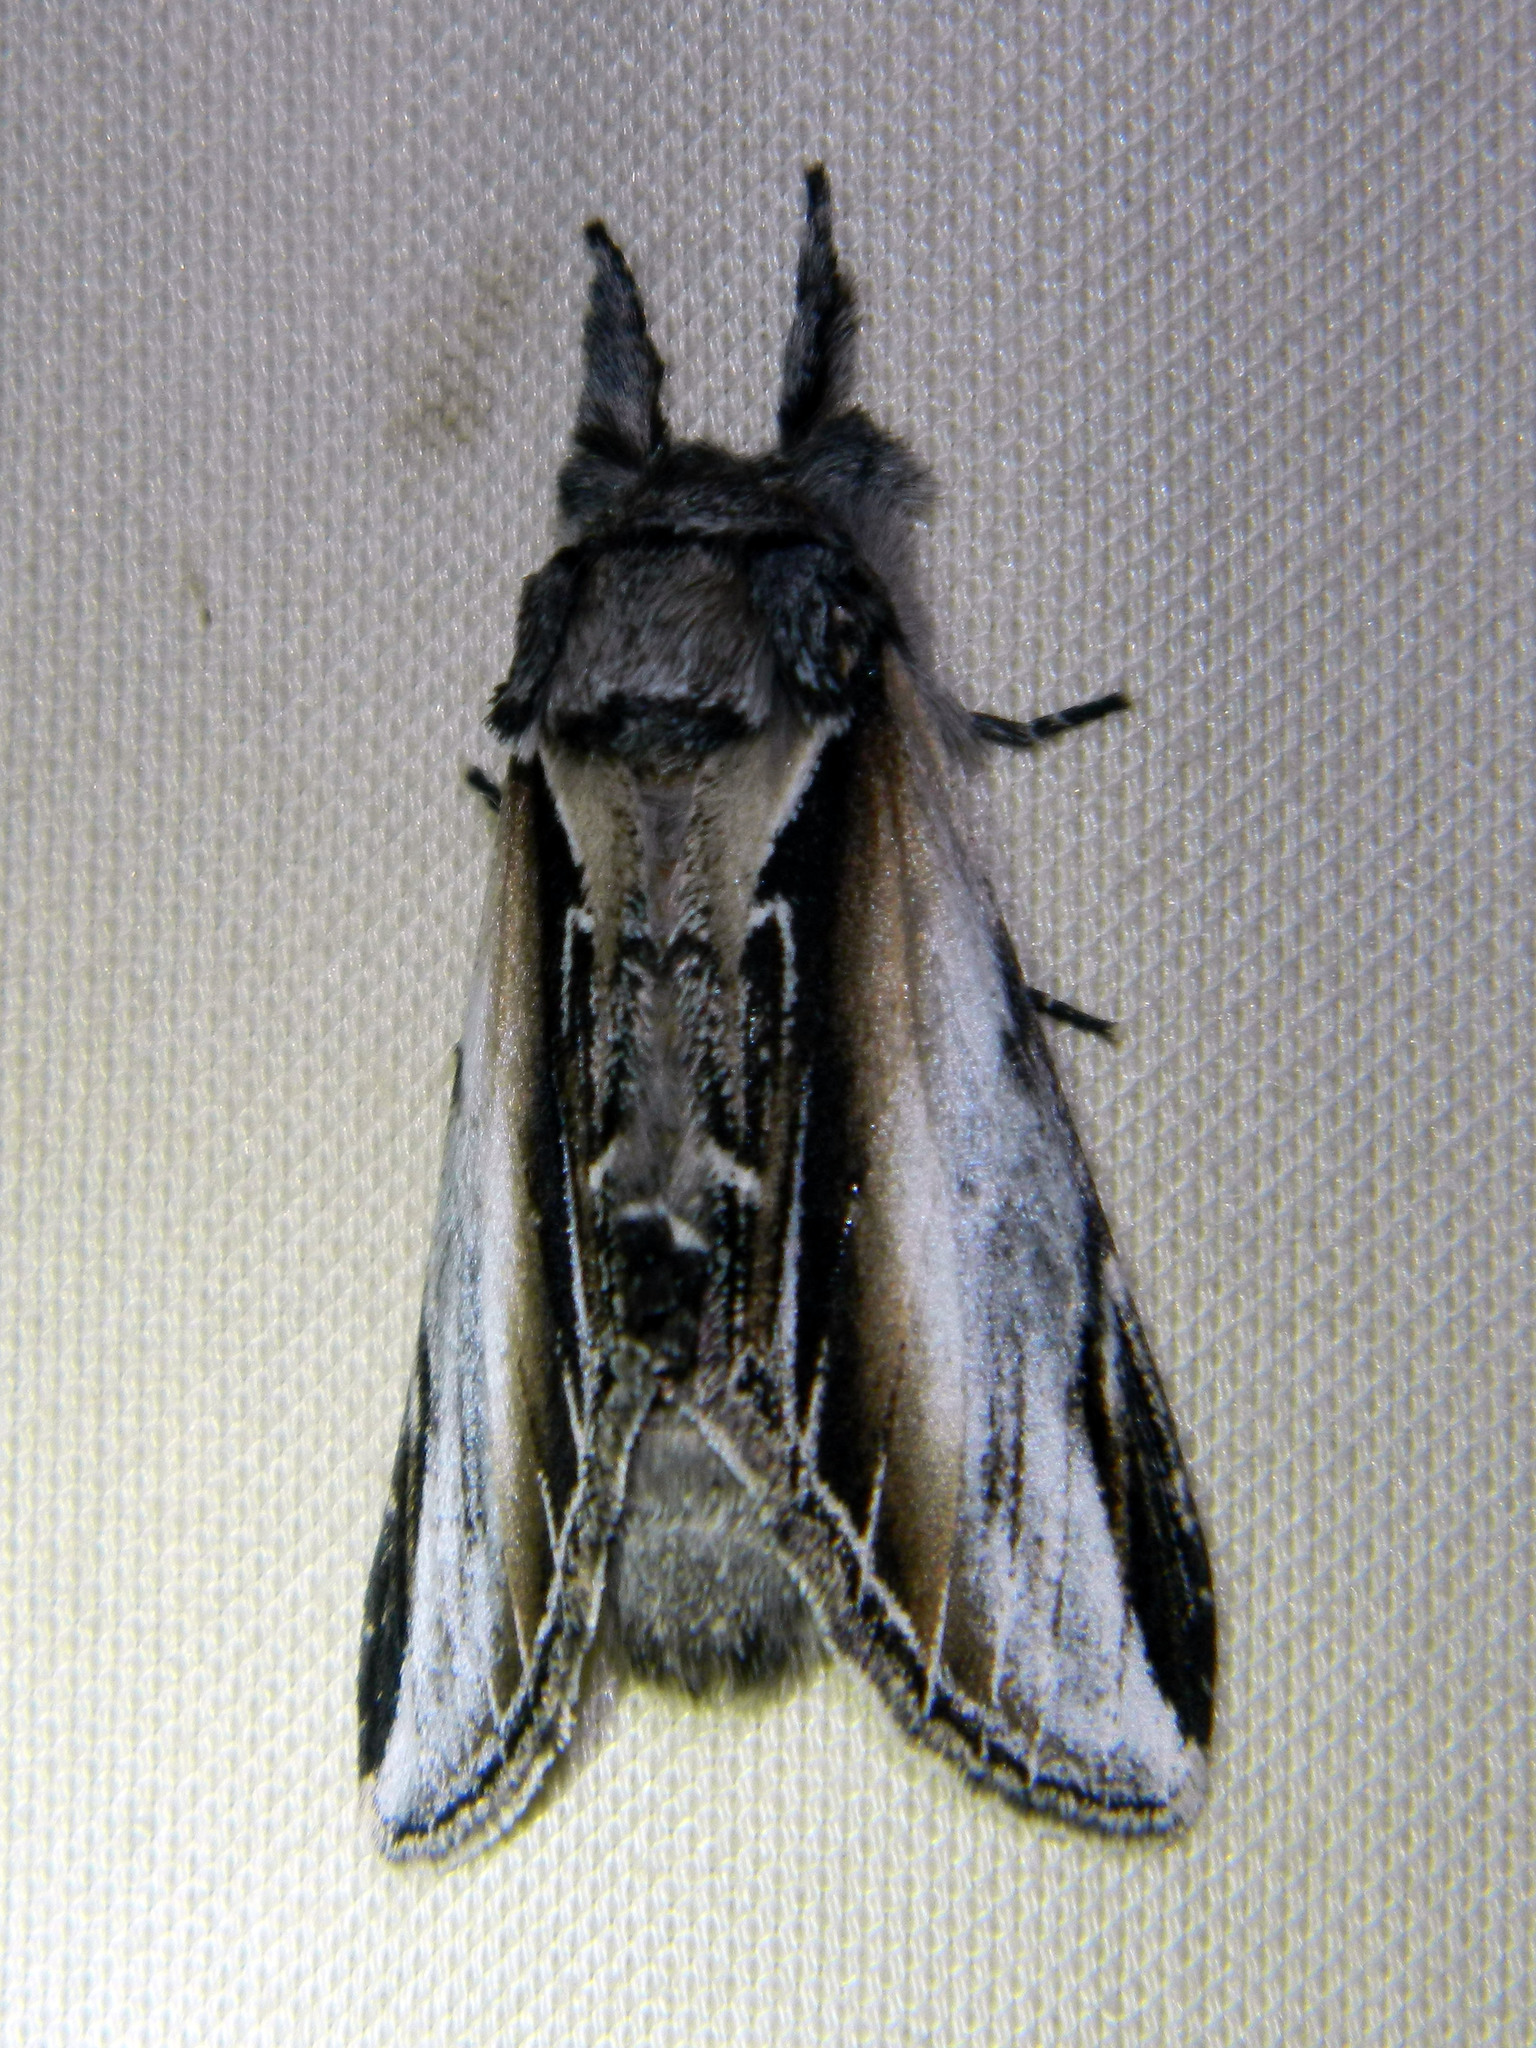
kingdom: Animalia
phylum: Arthropoda
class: Insecta
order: Lepidoptera
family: Notodontidae
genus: Pheosia
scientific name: Pheosia rimosa
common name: Black-rimmed prominent
